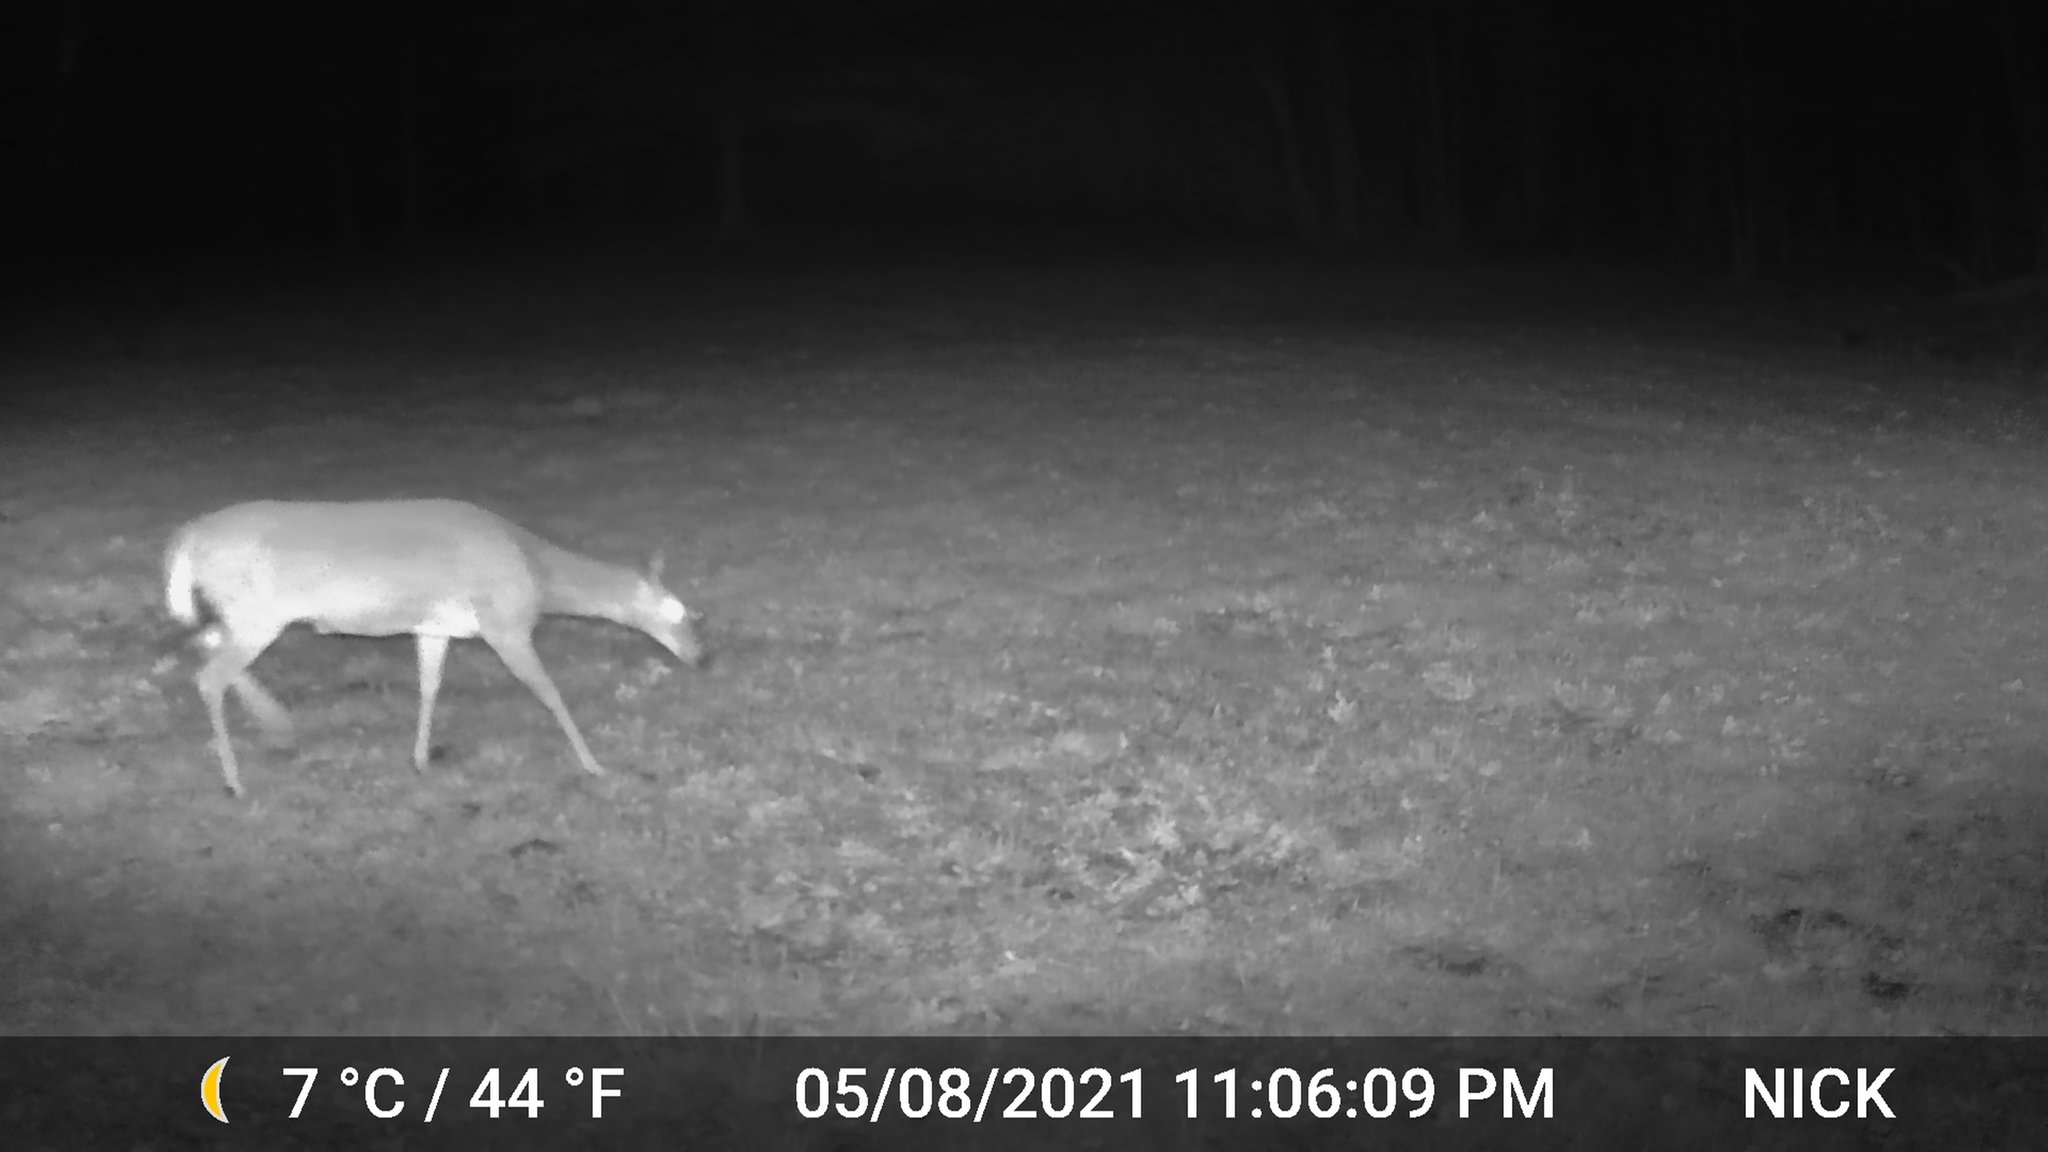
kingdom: Animalia
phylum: Chordata
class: Mammalia
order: Artiodactyla
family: Cervidae
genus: Odocoileus
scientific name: Odocoileus virginianus
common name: White-tailed deer
